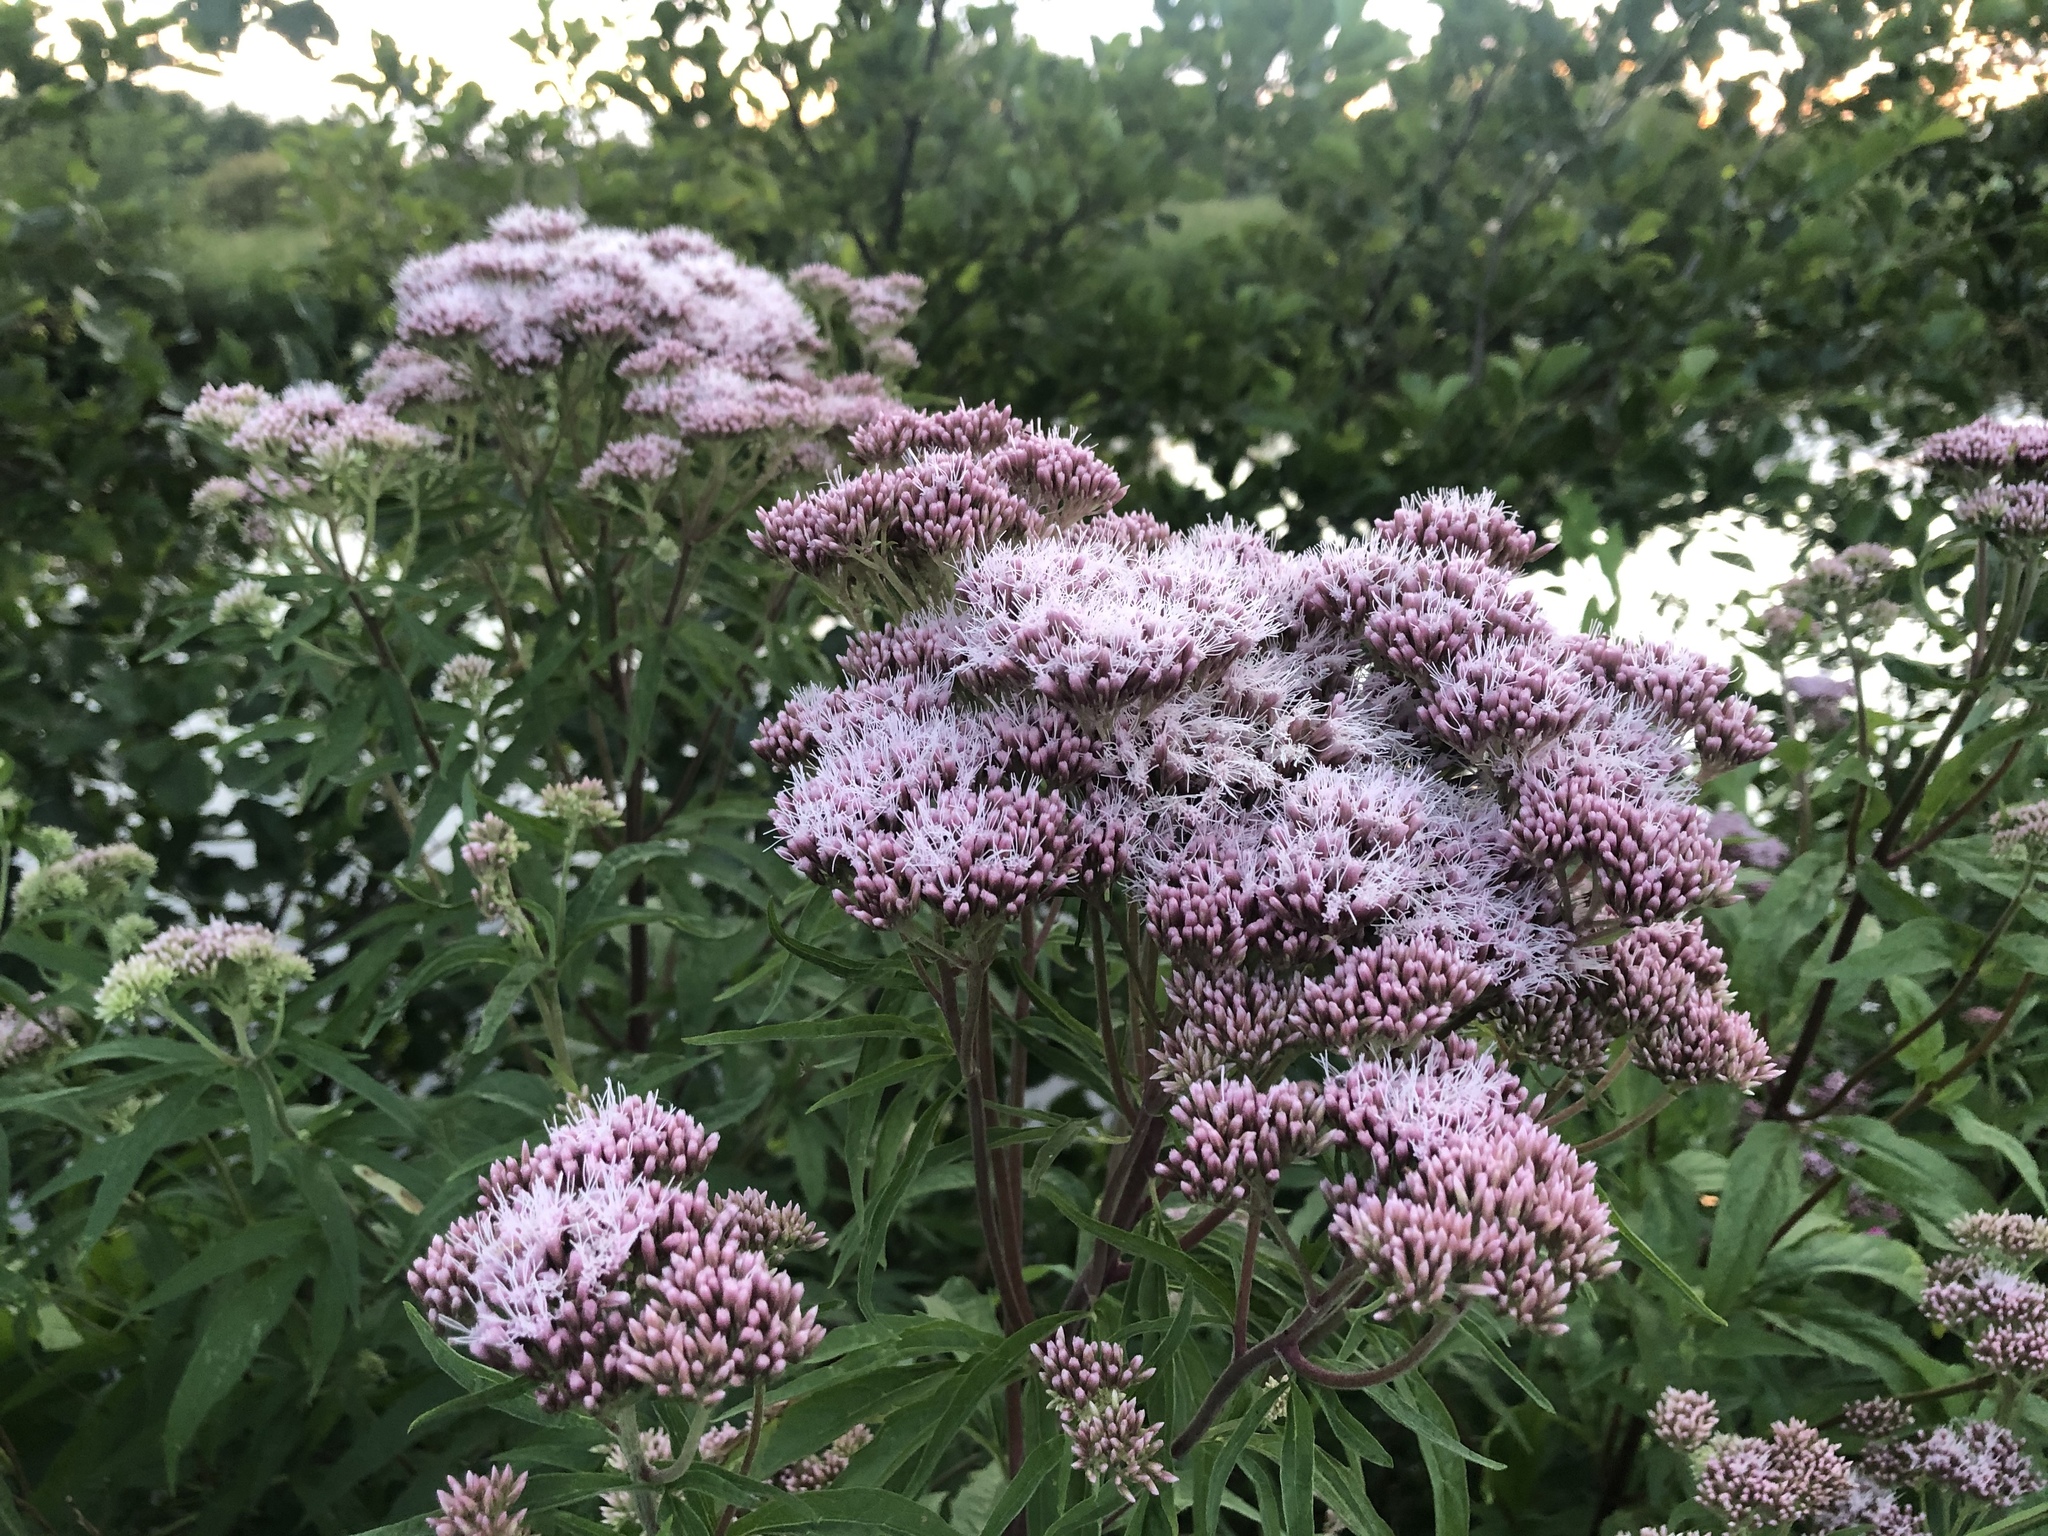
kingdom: Plantae
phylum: Tracheophyta
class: Magnoliopsida
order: Asterales
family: Asteraceae
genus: Eupatorium
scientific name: Eupatorium cannabinum
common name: Hemp-agrimony
